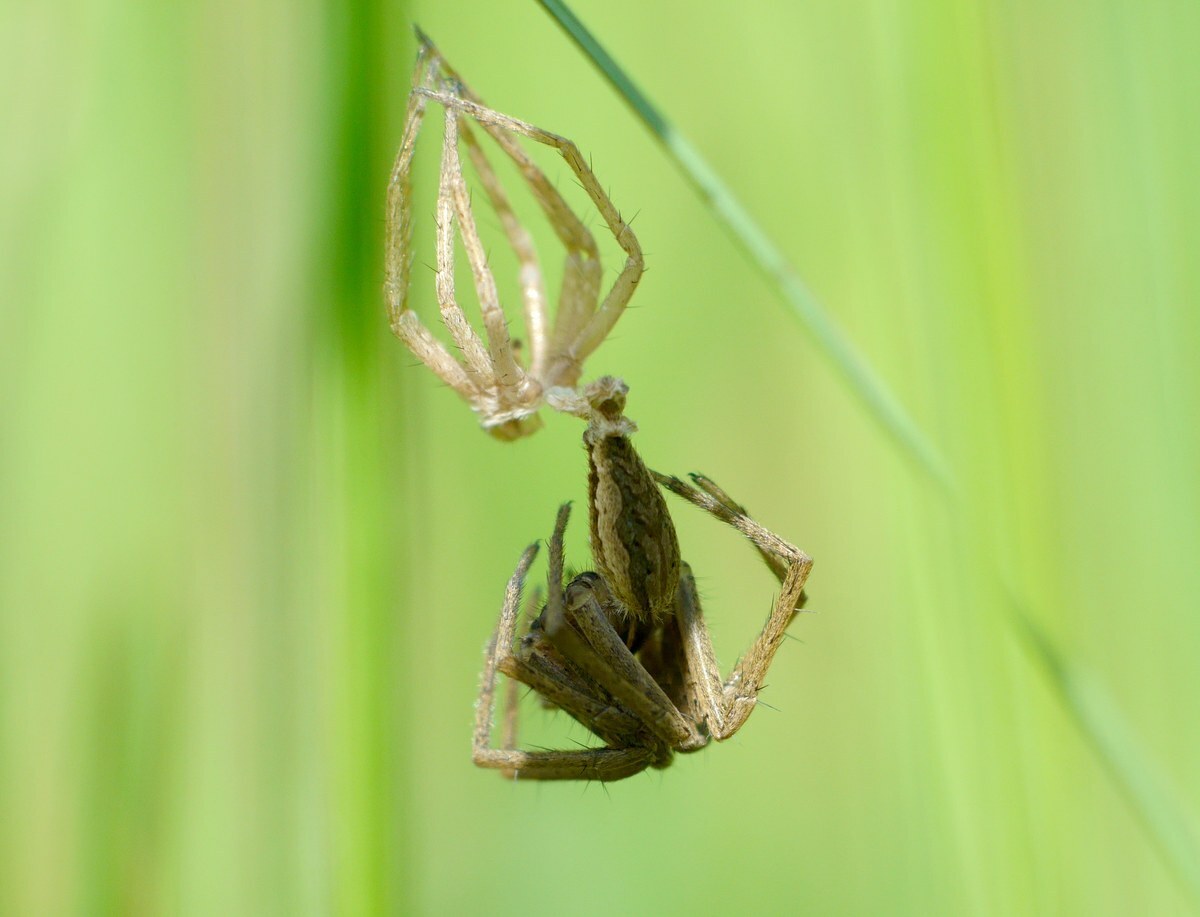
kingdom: Animalia
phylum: Arthropoda
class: Arachnida
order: Araneae
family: Pisauridae
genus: Pisaura
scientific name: Pisaura
